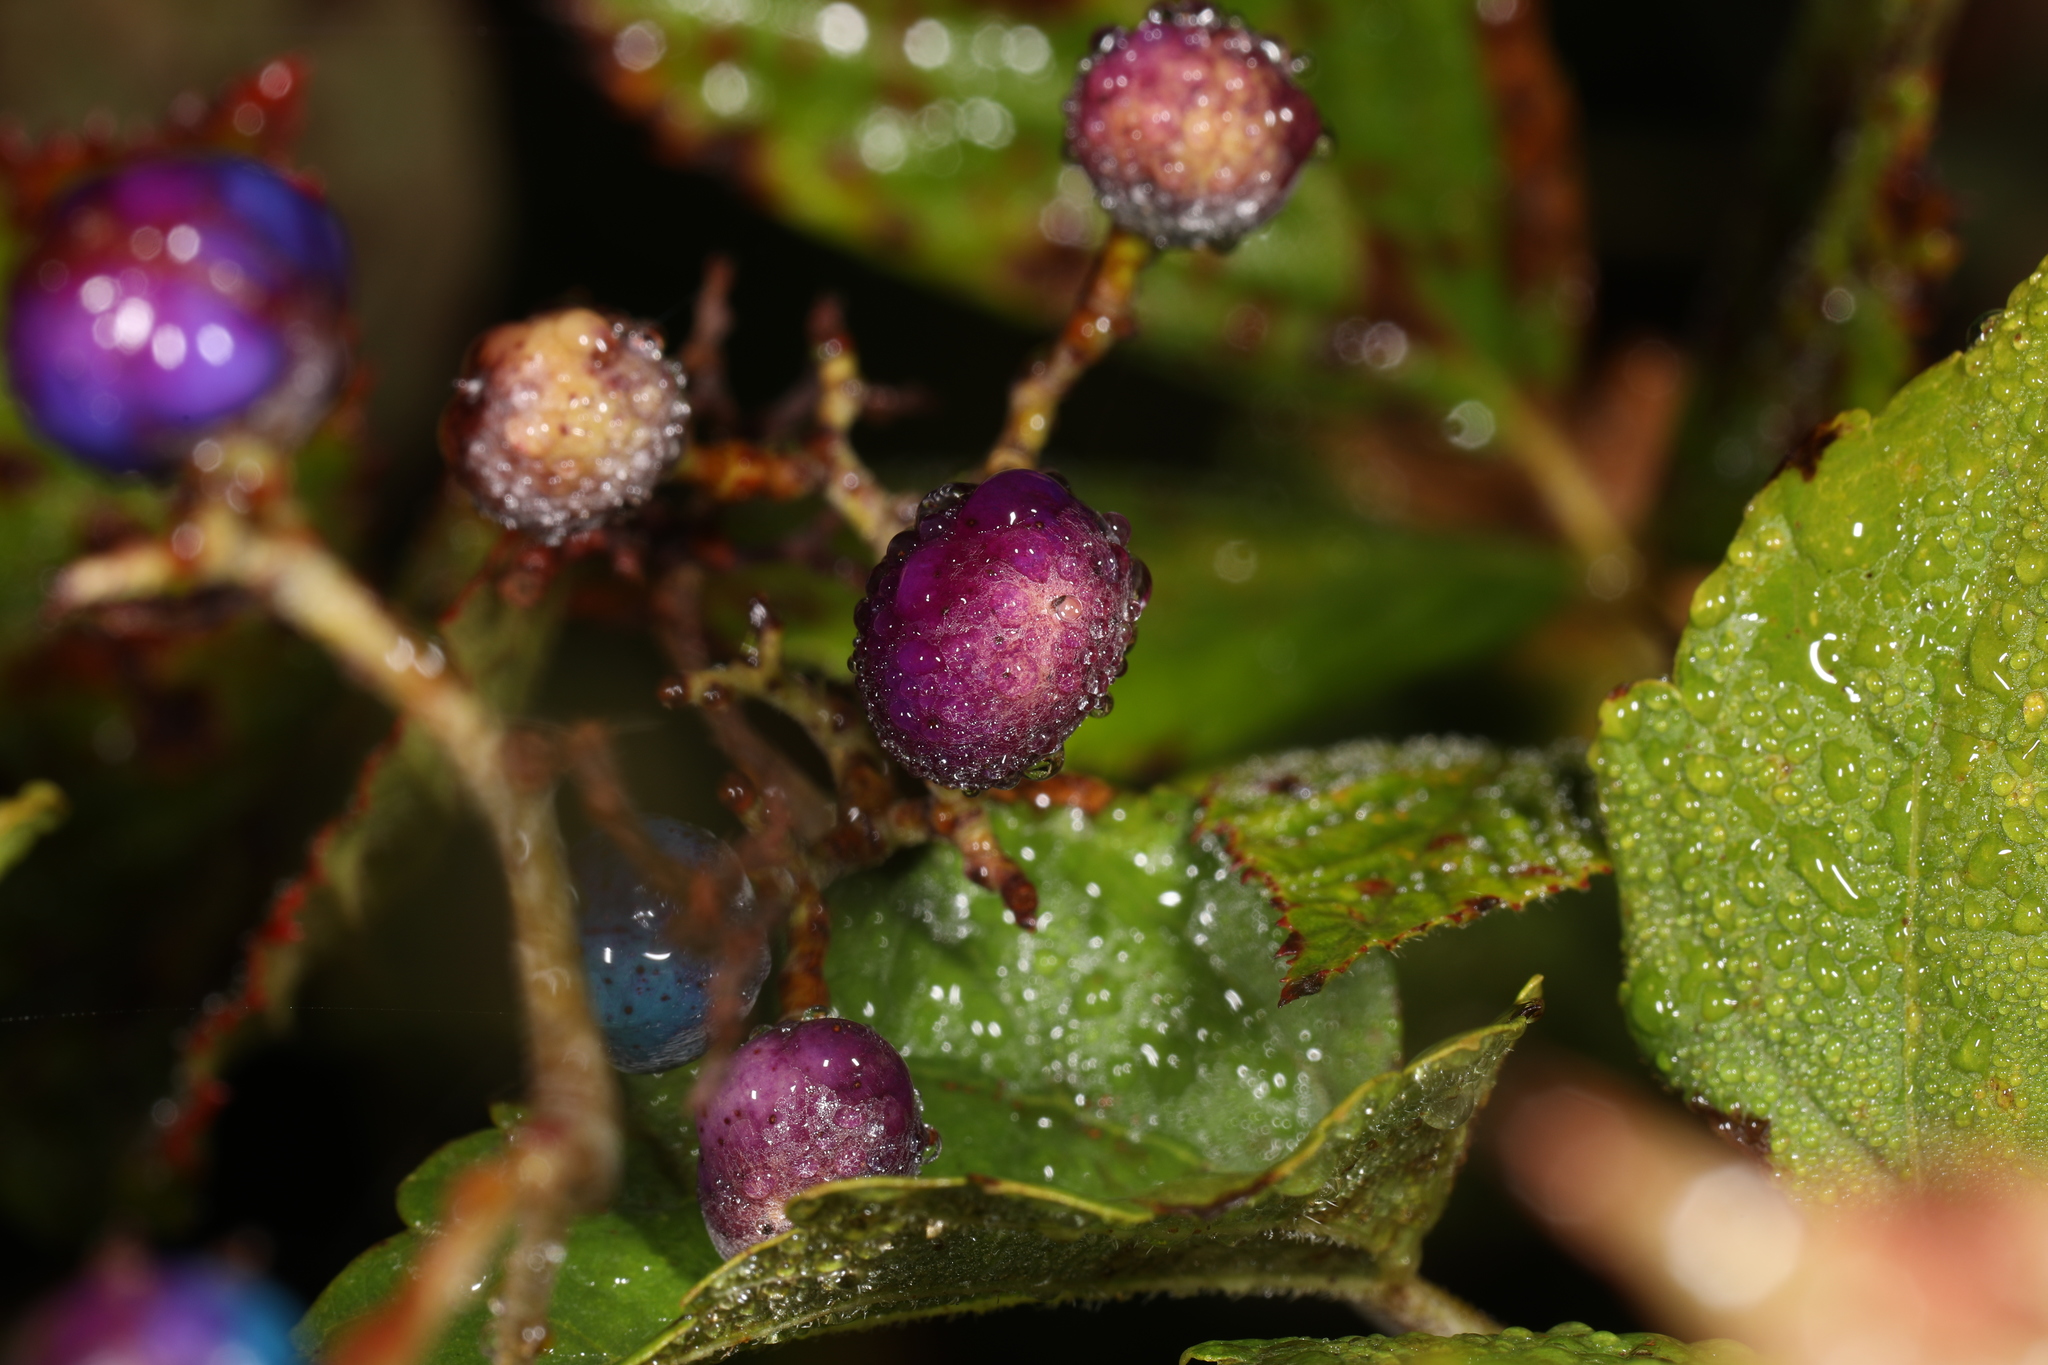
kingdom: Plantae
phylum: Tracheophyta
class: Magnoliopsida
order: Vitales
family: Vitaceae
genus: Ampelopsis
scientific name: Ampelopsis glandulosa
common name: Amur peppervine
